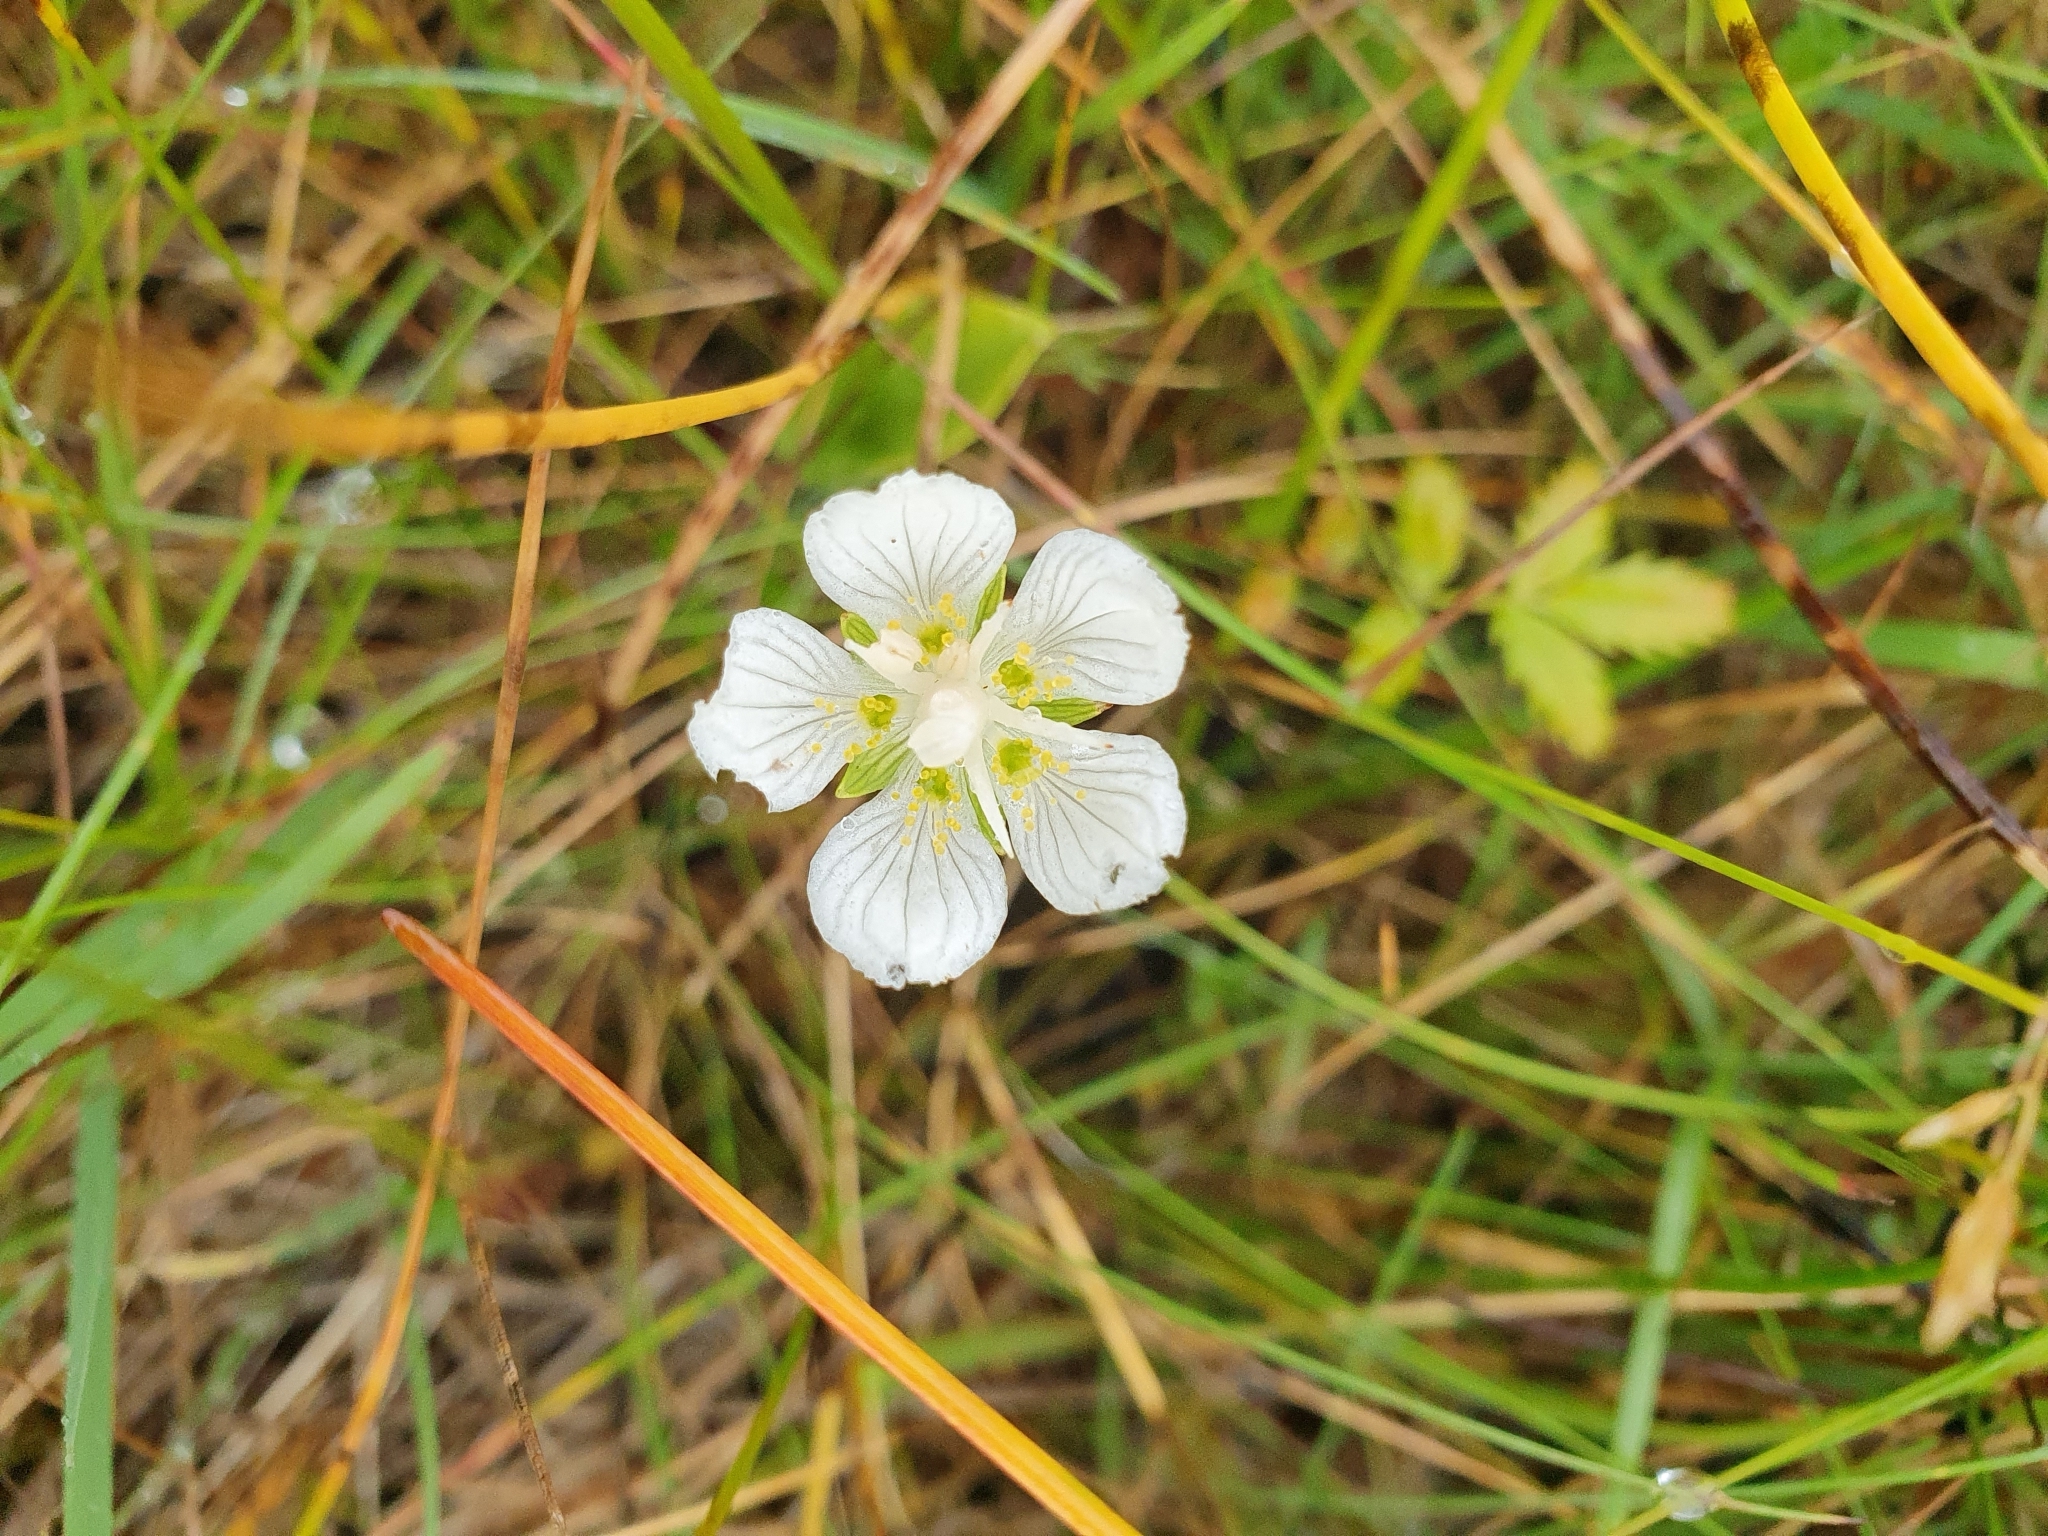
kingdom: Plantae
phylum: Tracheophyta
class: Magnoliopsida
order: Celastrales
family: Parnassiaceae
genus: Parnassia
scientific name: Parnassia palustris
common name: Grass-of-parnassus
